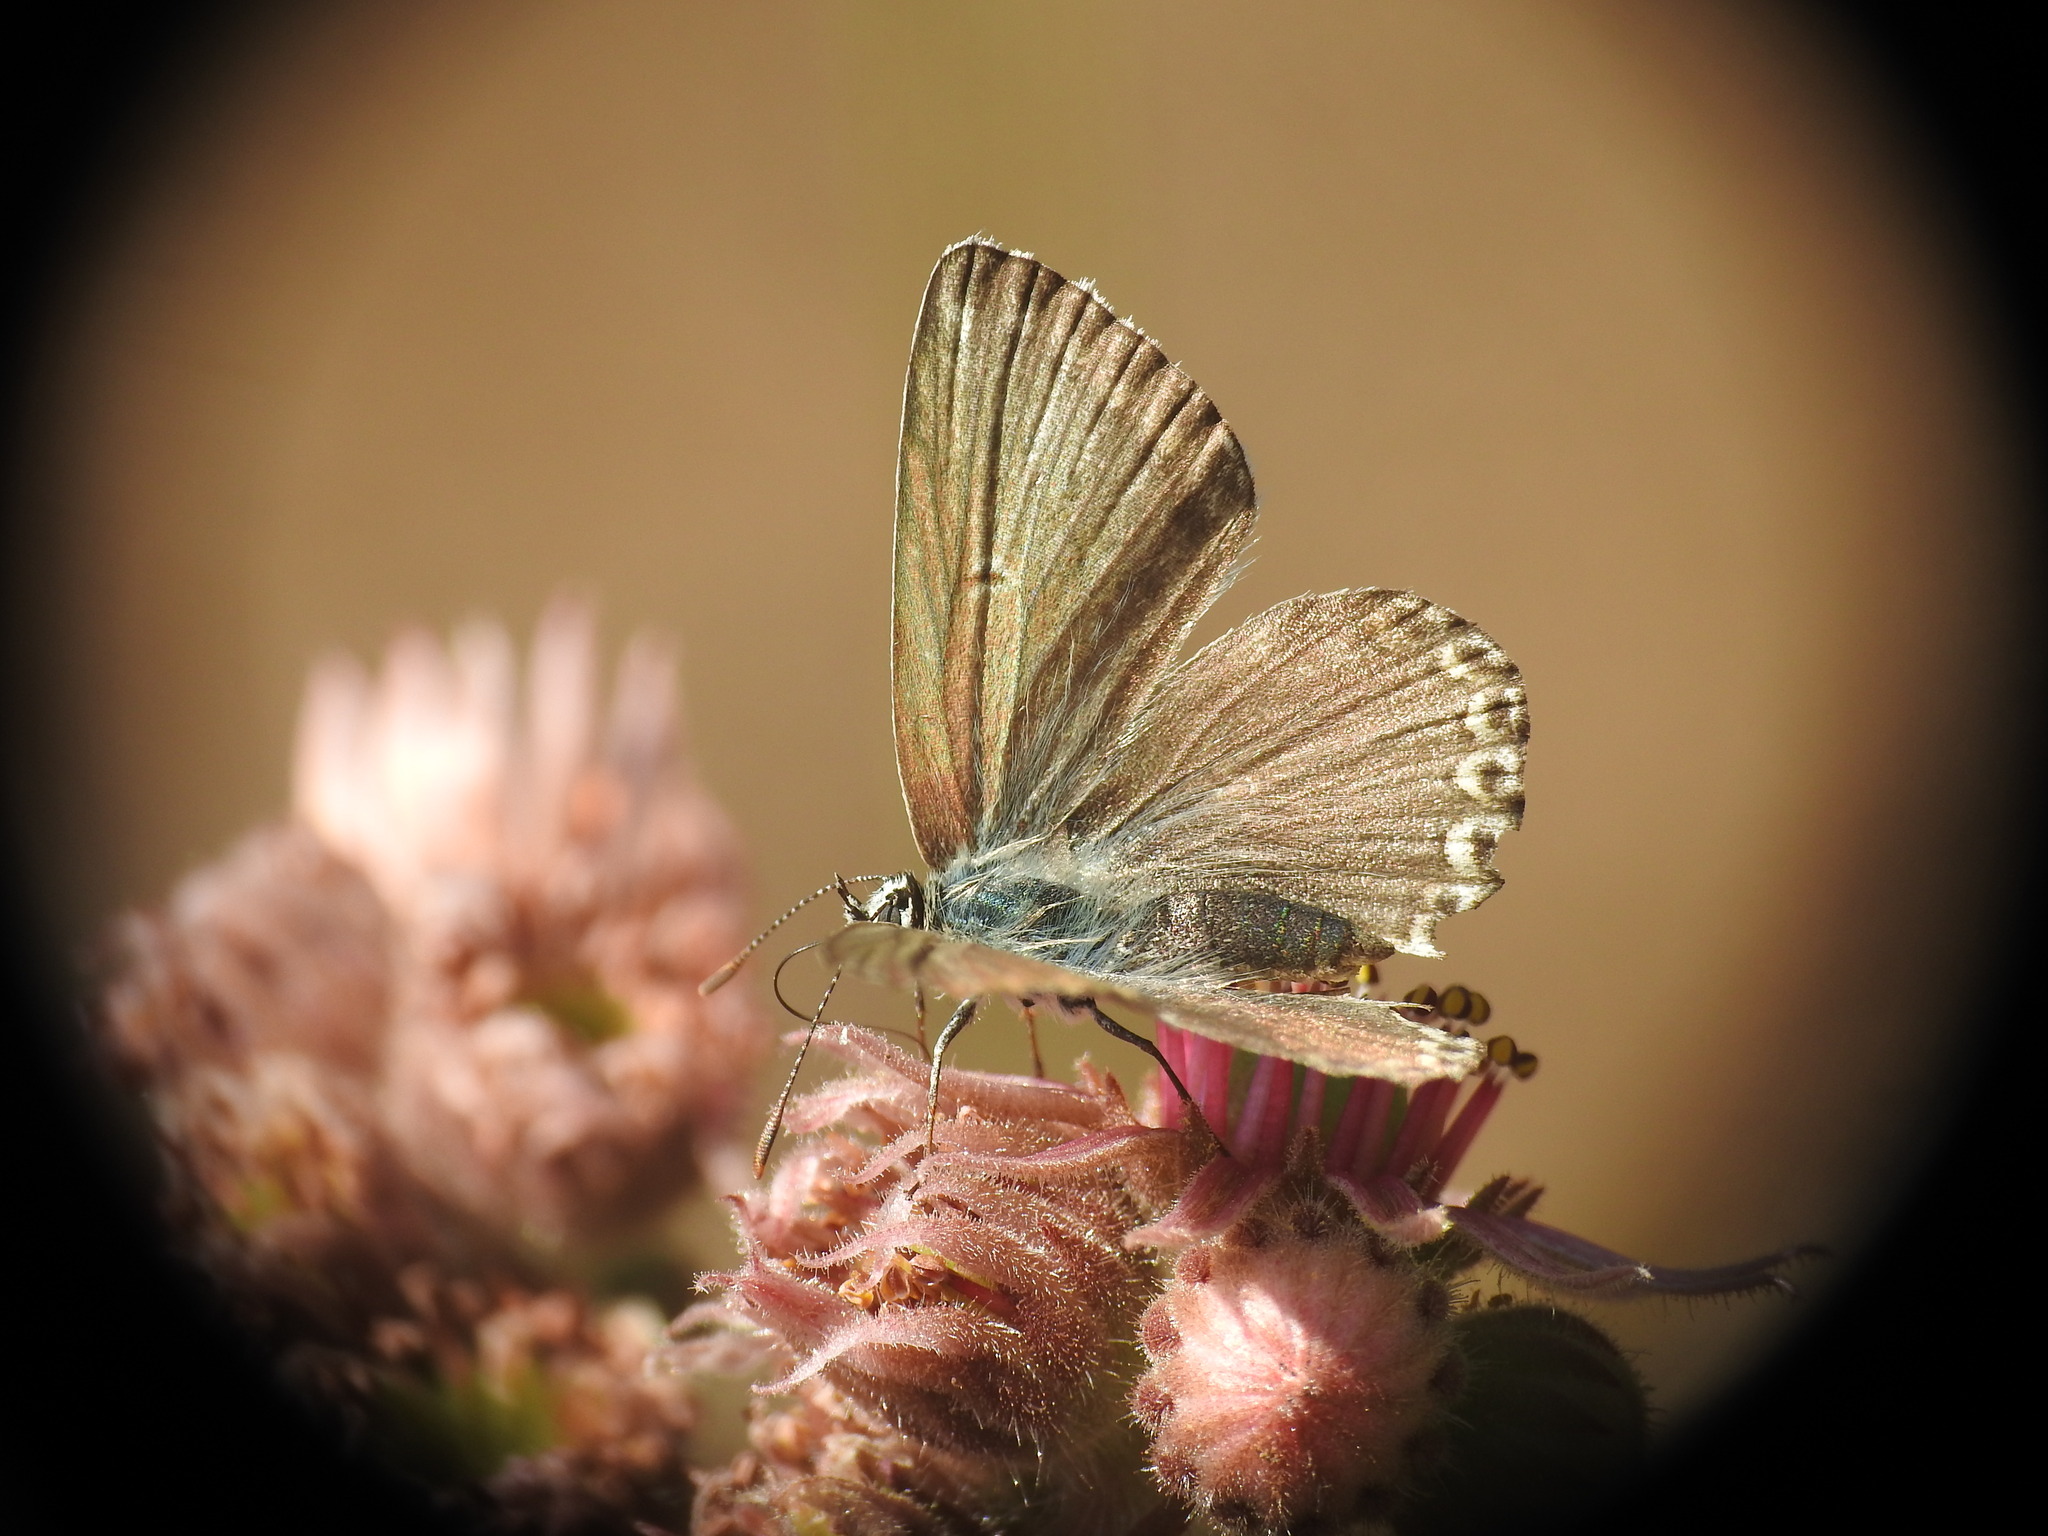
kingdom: Animalia
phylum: Arthropoda
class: Insecta
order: Lepidoptera
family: Lycaenidae
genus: Lysandra
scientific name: Lysandra coridon
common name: Chalkhill blue
